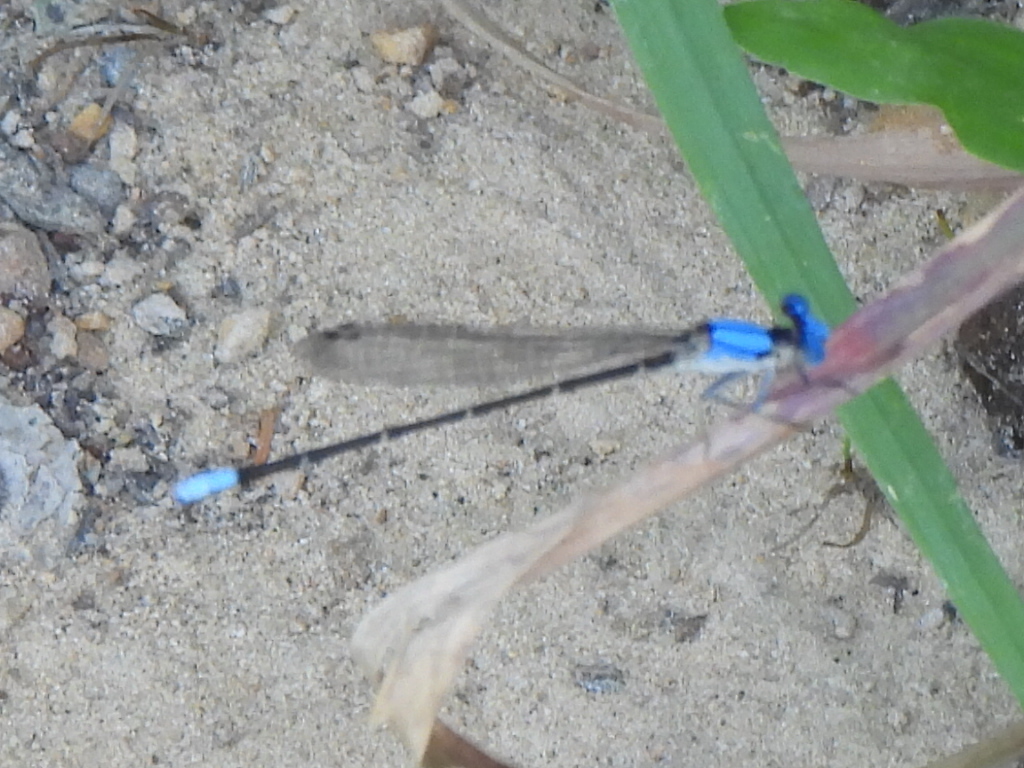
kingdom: Animalia
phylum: Arthropoda
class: Insecta
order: Odonata
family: Coenagrionidae
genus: Argia
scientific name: Argia apicalis
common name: Blue-fronted dancer
